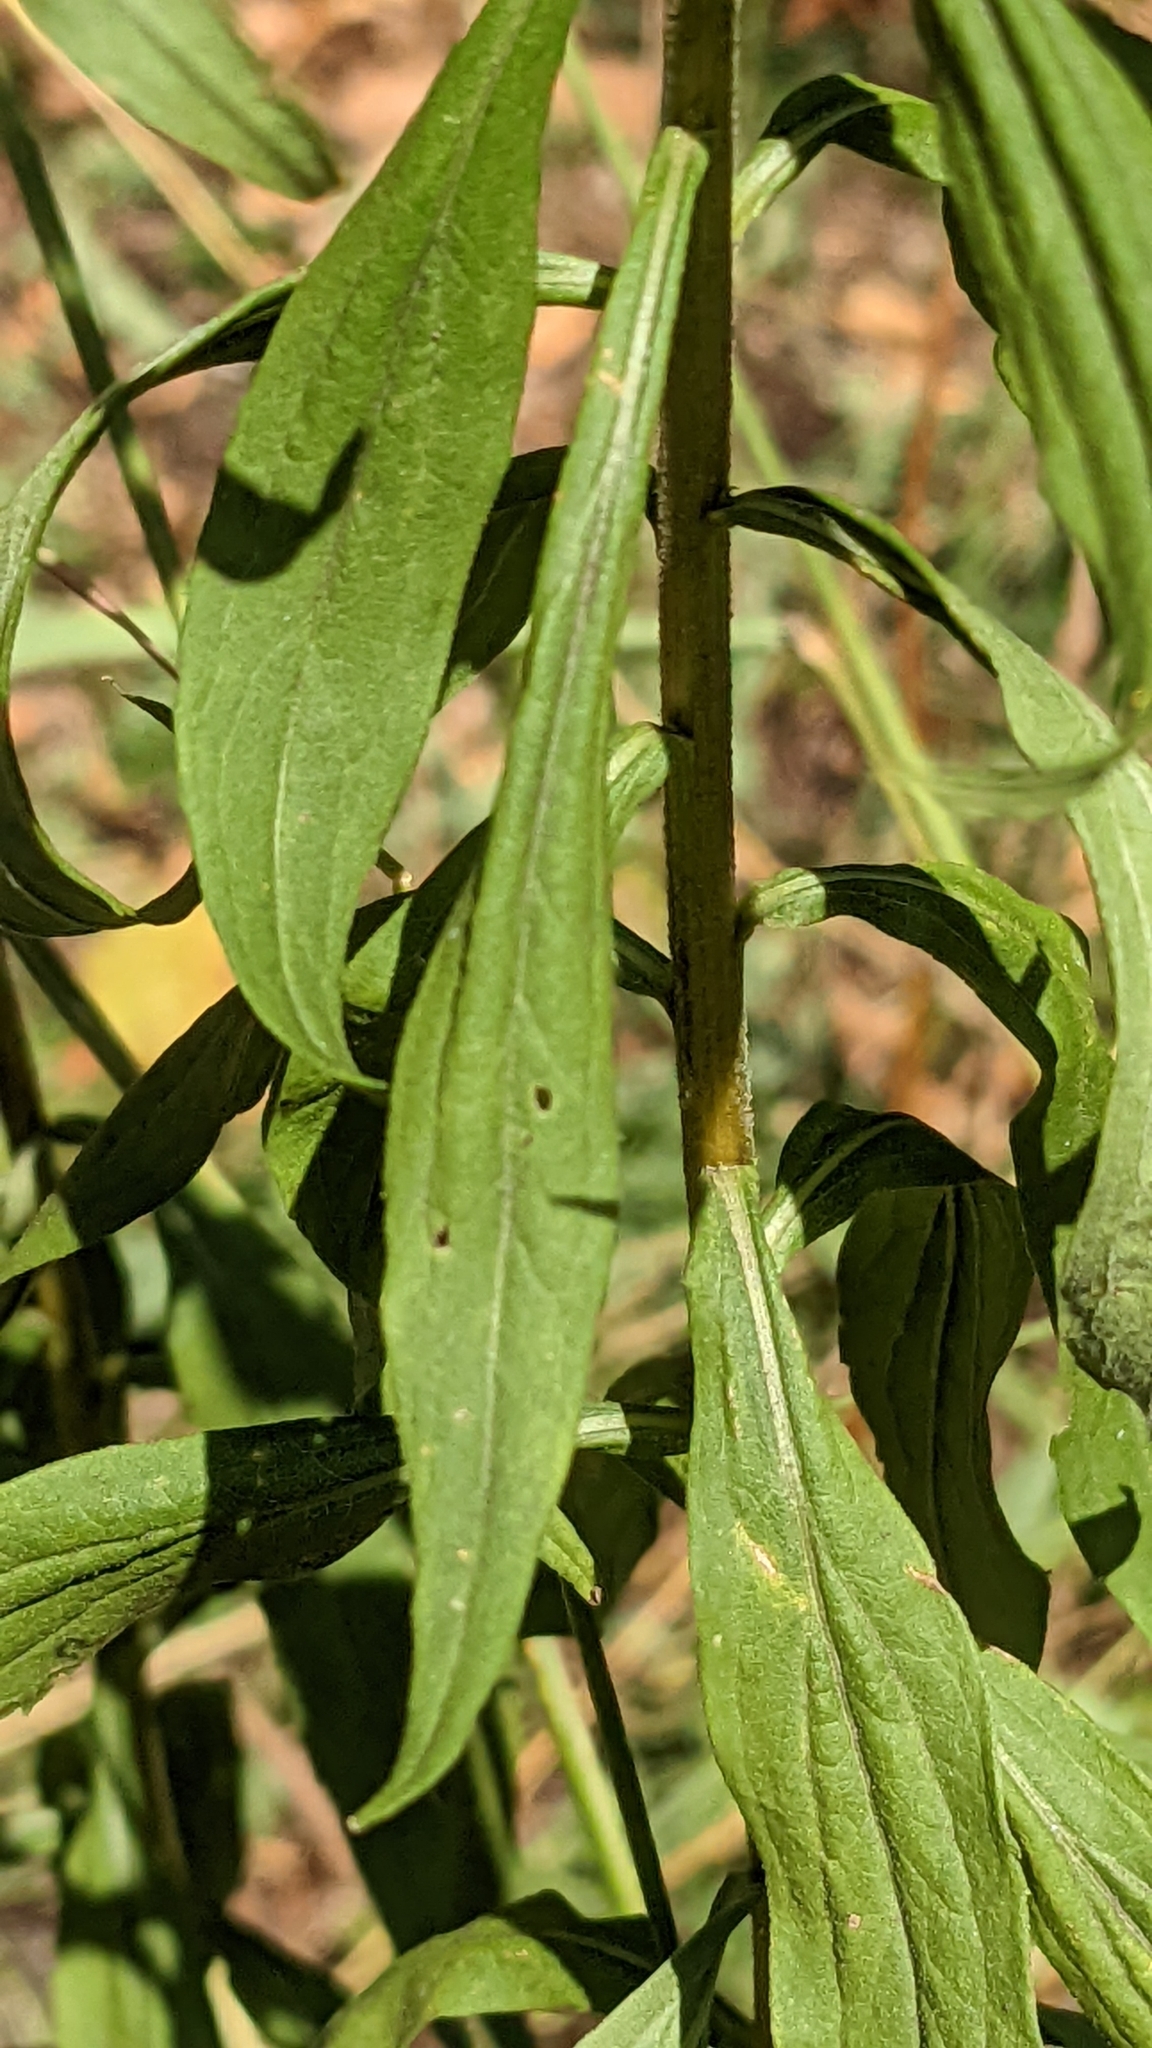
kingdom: Plantae
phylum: Tracheophyta
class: Magnoliopsida
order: Asterales
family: Asteraceae
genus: Solidago
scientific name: Solidago canadensis
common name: Canada goldenrod
